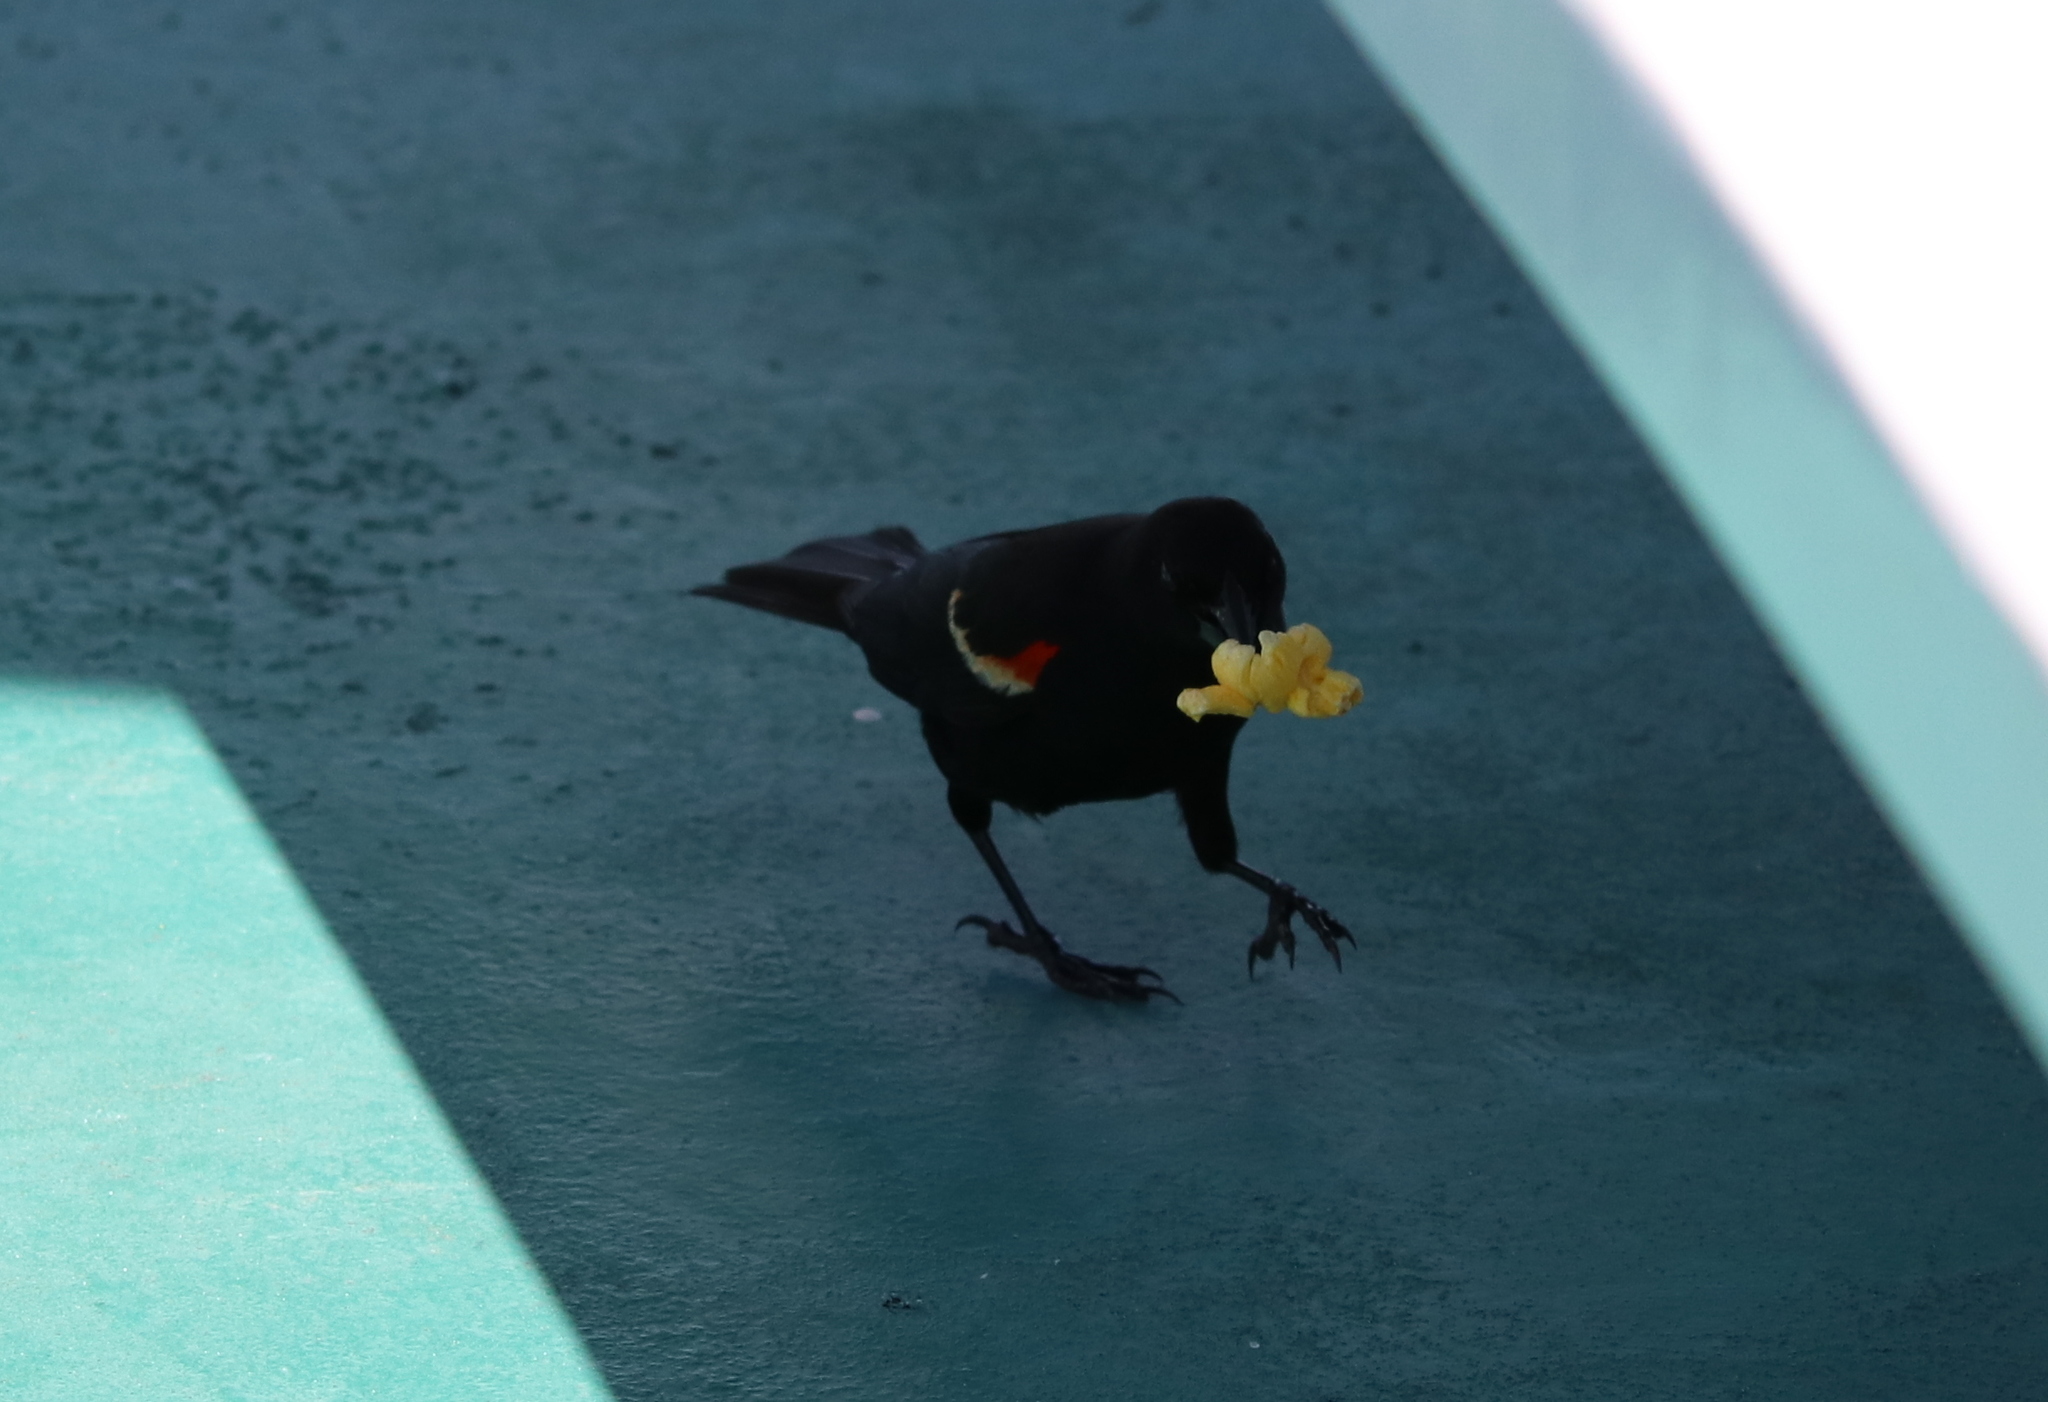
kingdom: Animalia
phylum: Chordata
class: Aves
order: Passeriformes
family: Icteridae
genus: Agelaius
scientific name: Agelaius phoeniceus
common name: Red-winged blackbird
